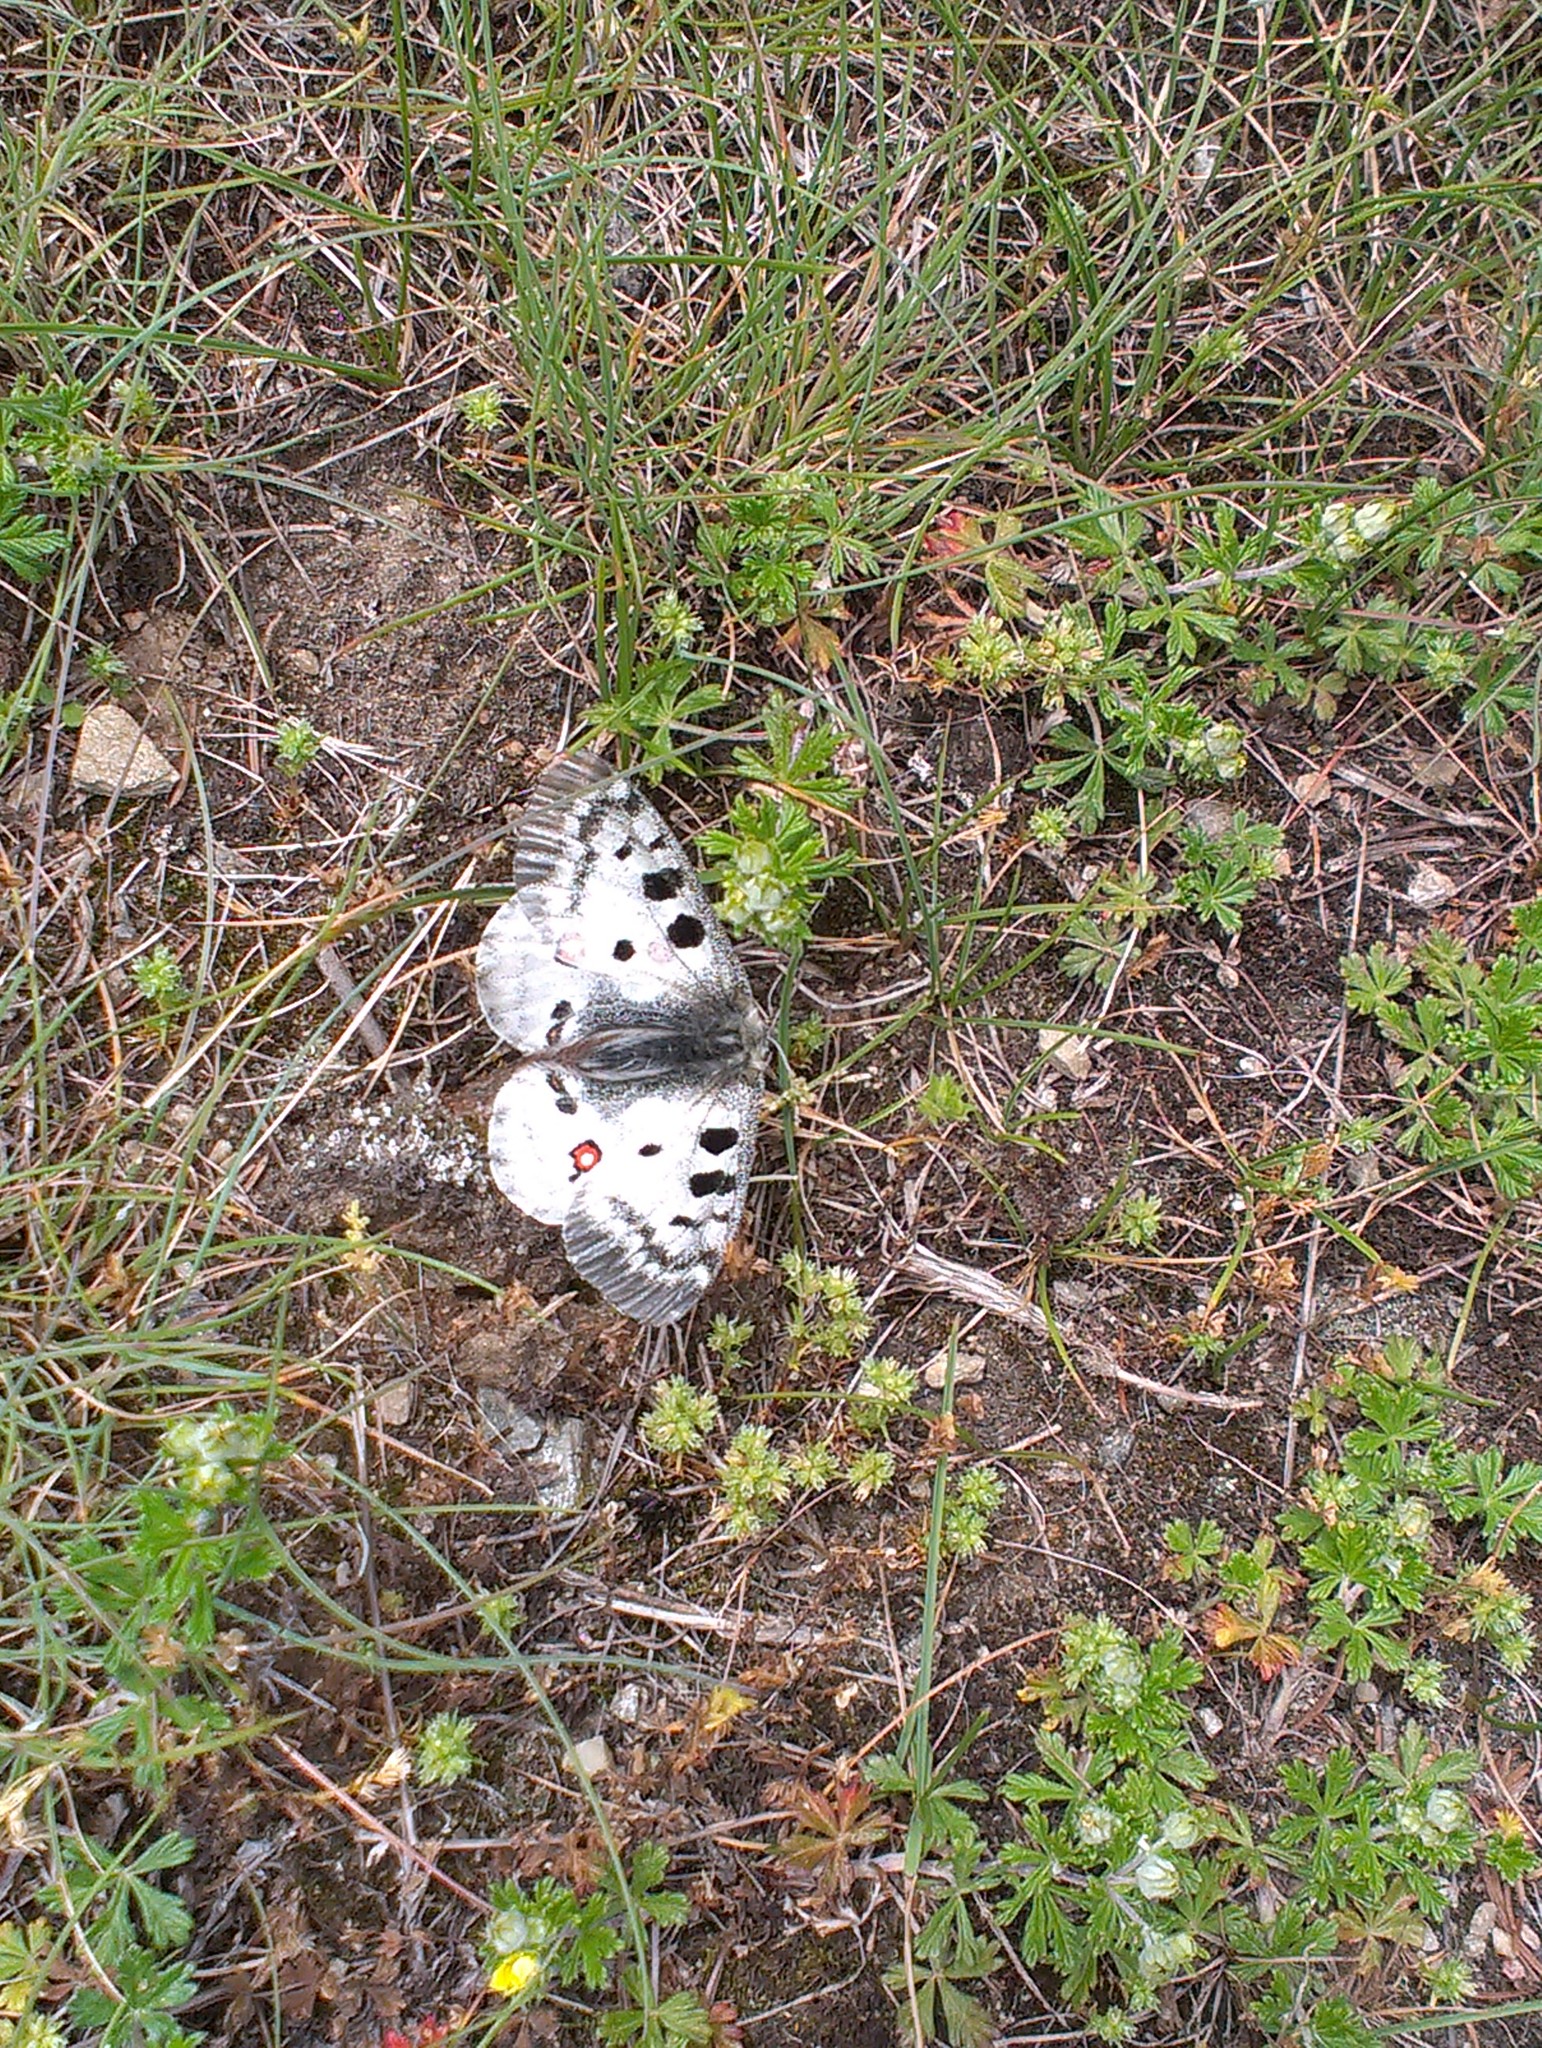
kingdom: Animalia
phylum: Arthropoda
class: Insecta
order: Lepidoptera
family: Papilionidae
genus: Parnassius
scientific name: Parnassius apollo
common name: Apollo
